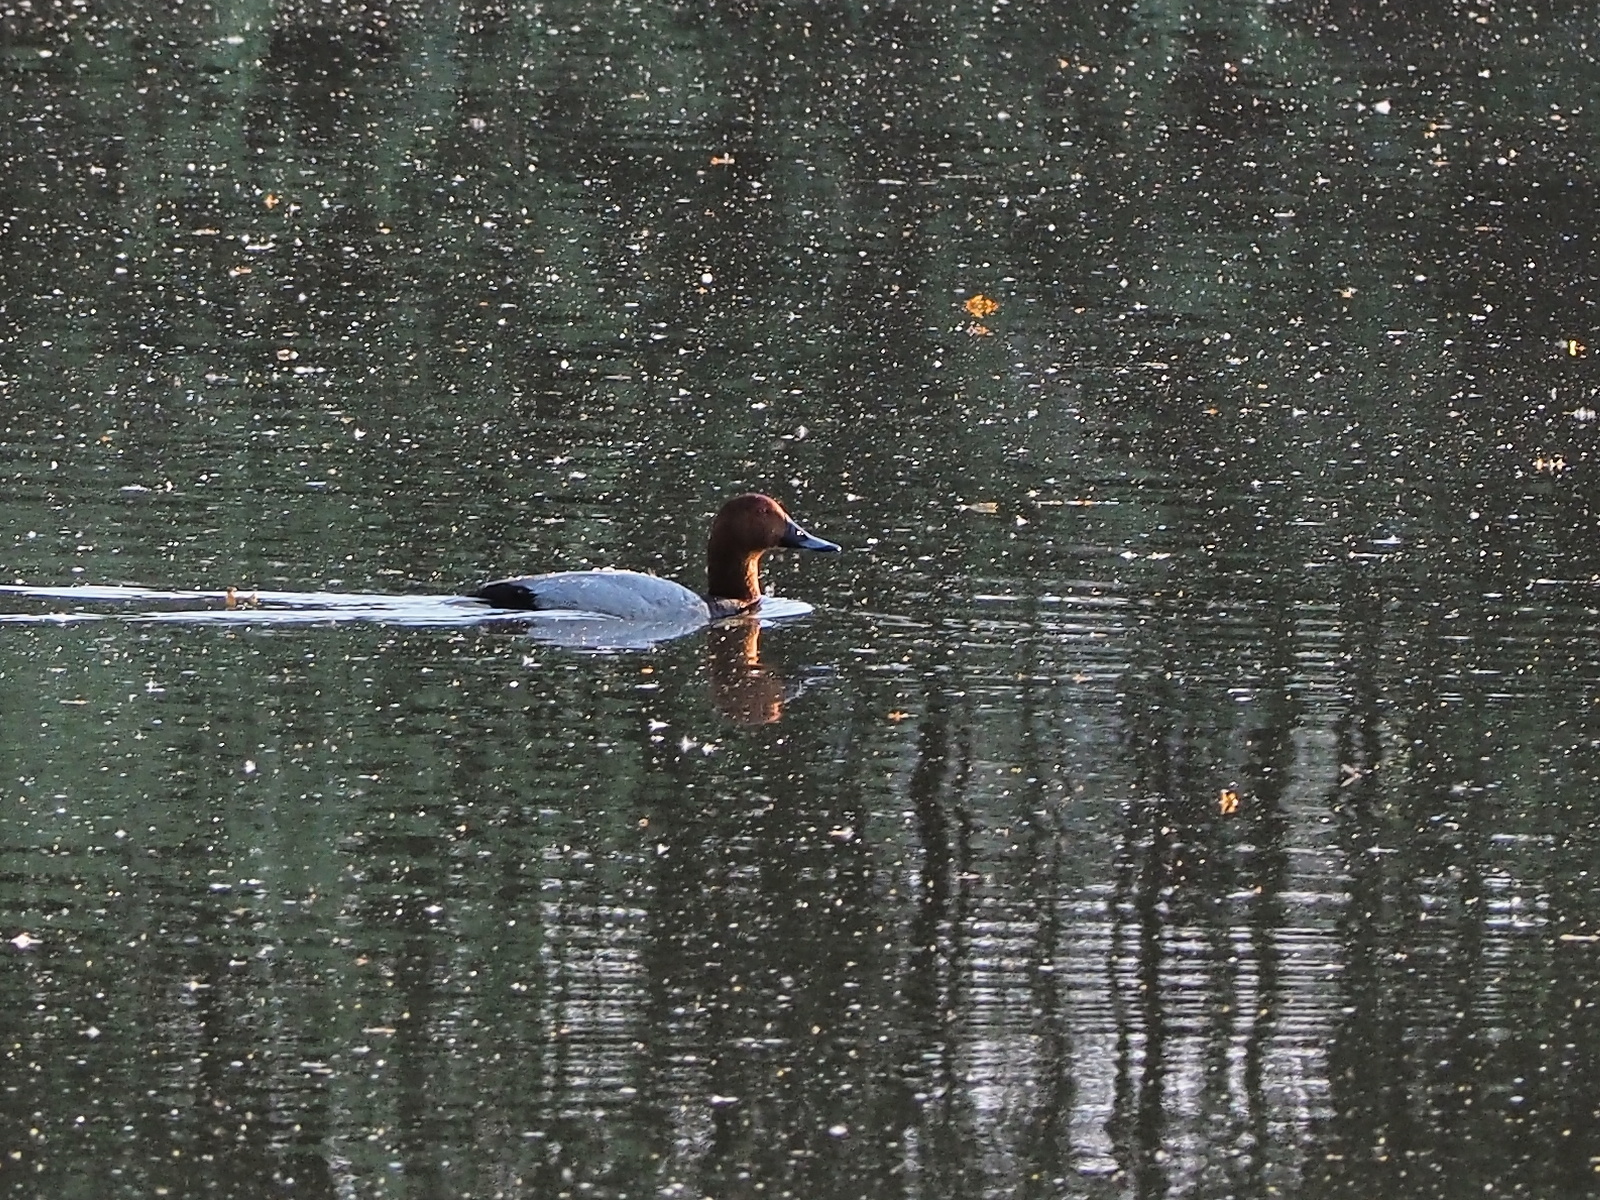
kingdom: Animalia
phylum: Chordata
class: Aves
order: Anseriformes
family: Anatidae
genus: Aythya
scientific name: Aythya ferina
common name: Common pochard
